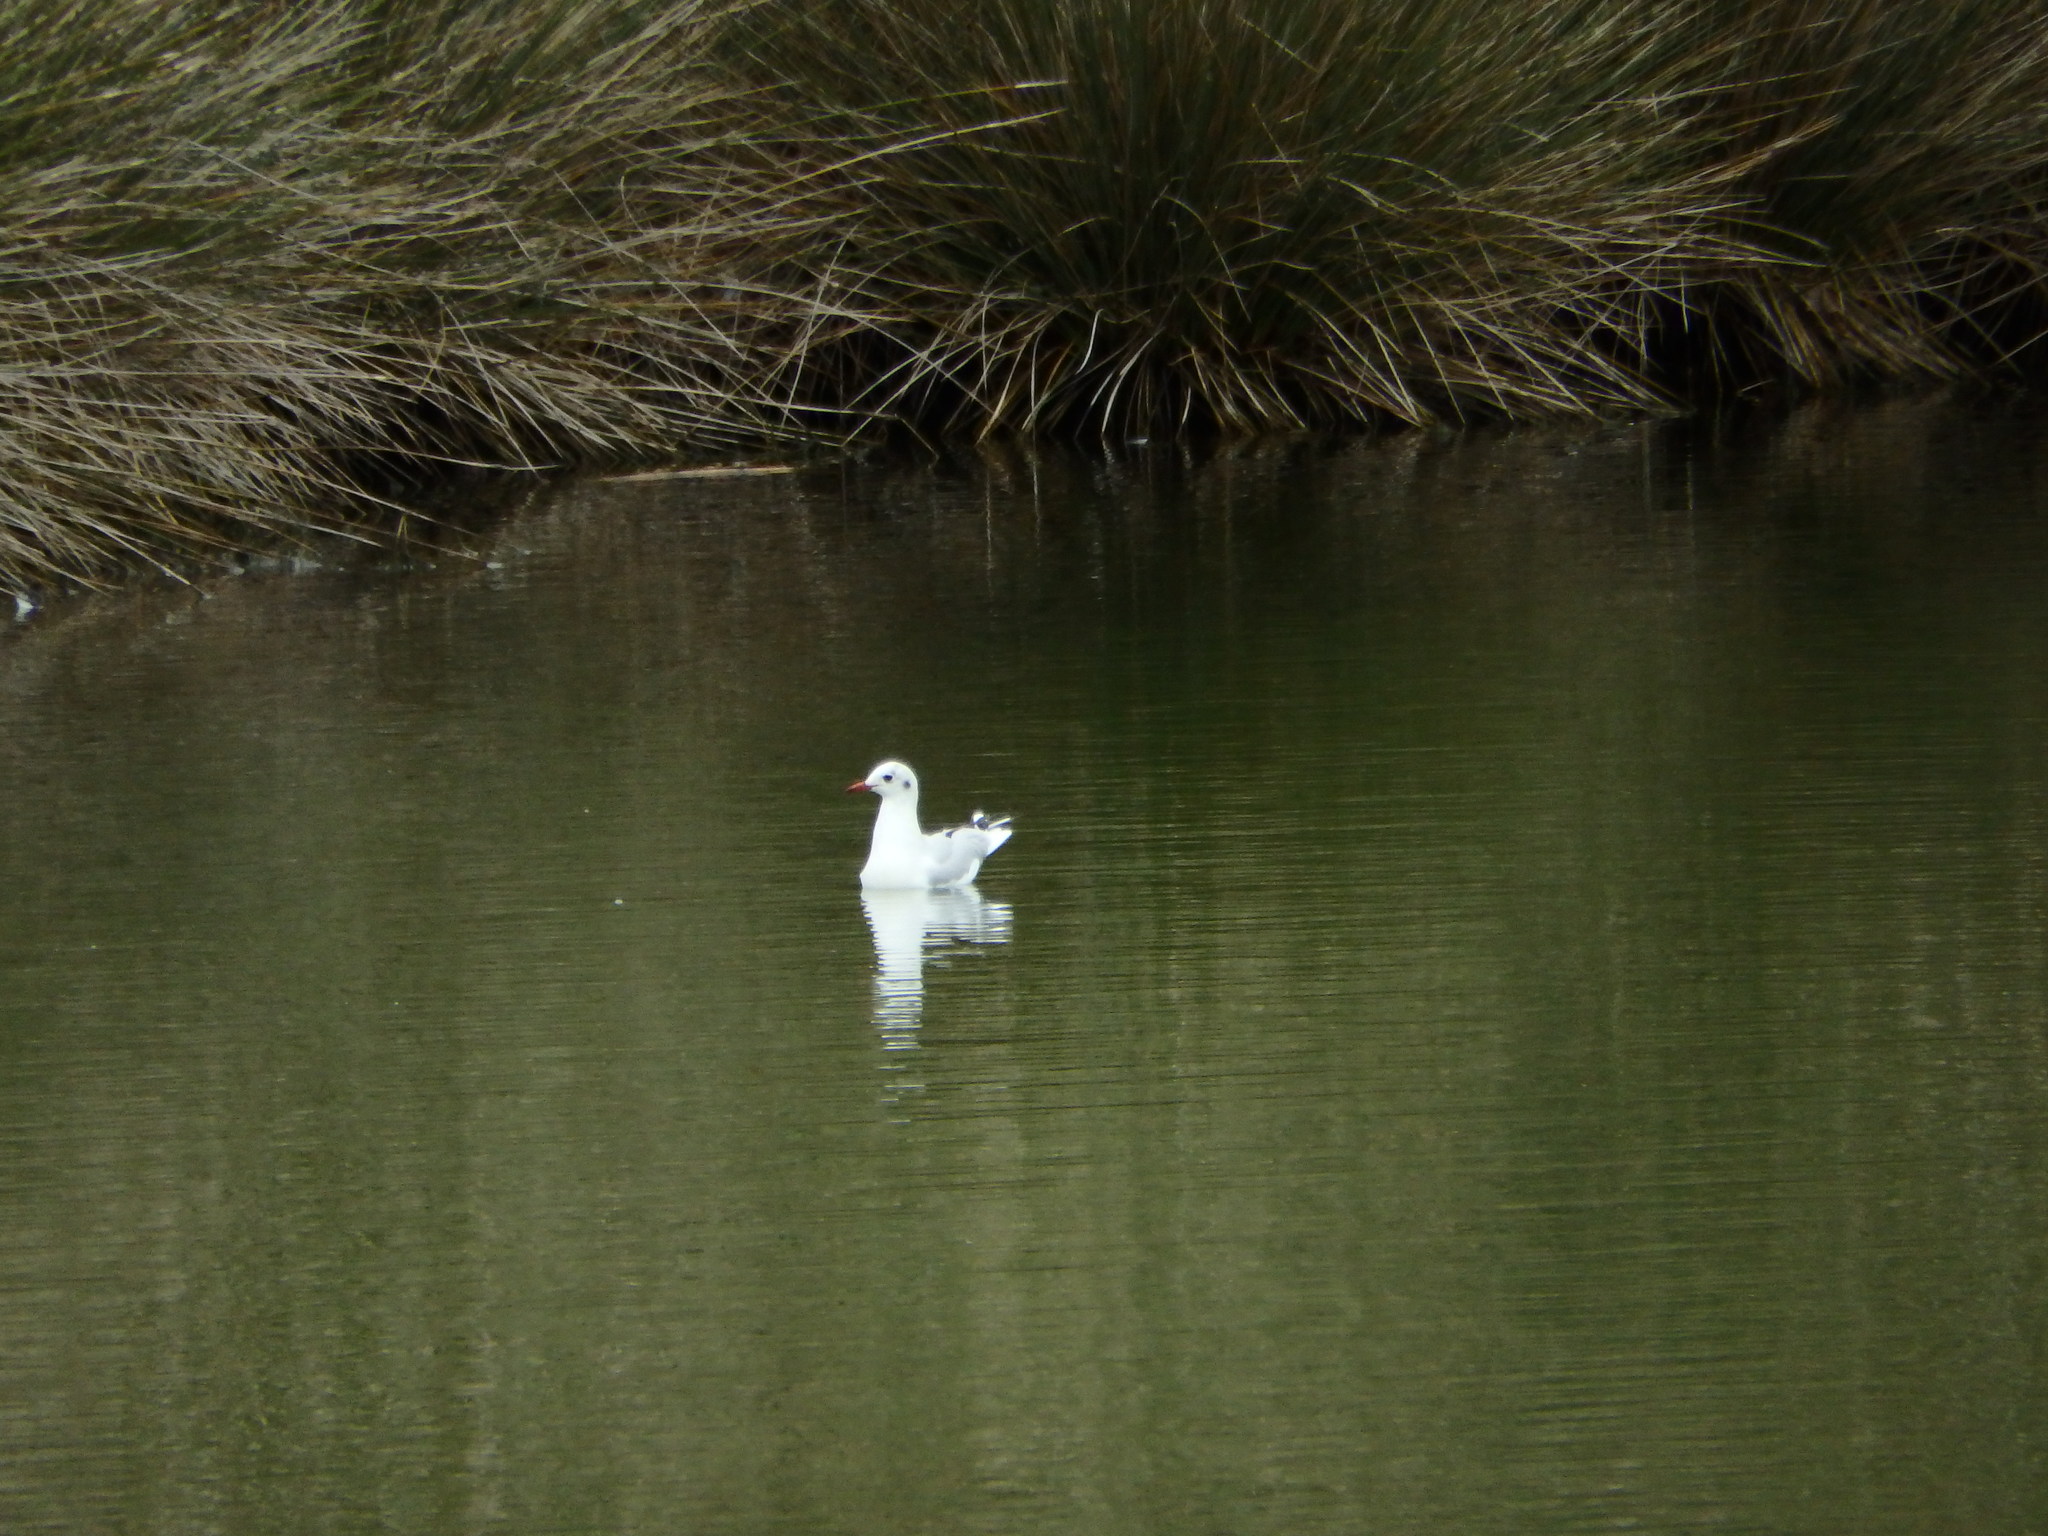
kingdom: Animalia
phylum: Chordata
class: Aves
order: Charadriiformes
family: Laridae
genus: Chroicocephalus
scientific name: Chroicocephalus ridibundus
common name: Black-headed gull
